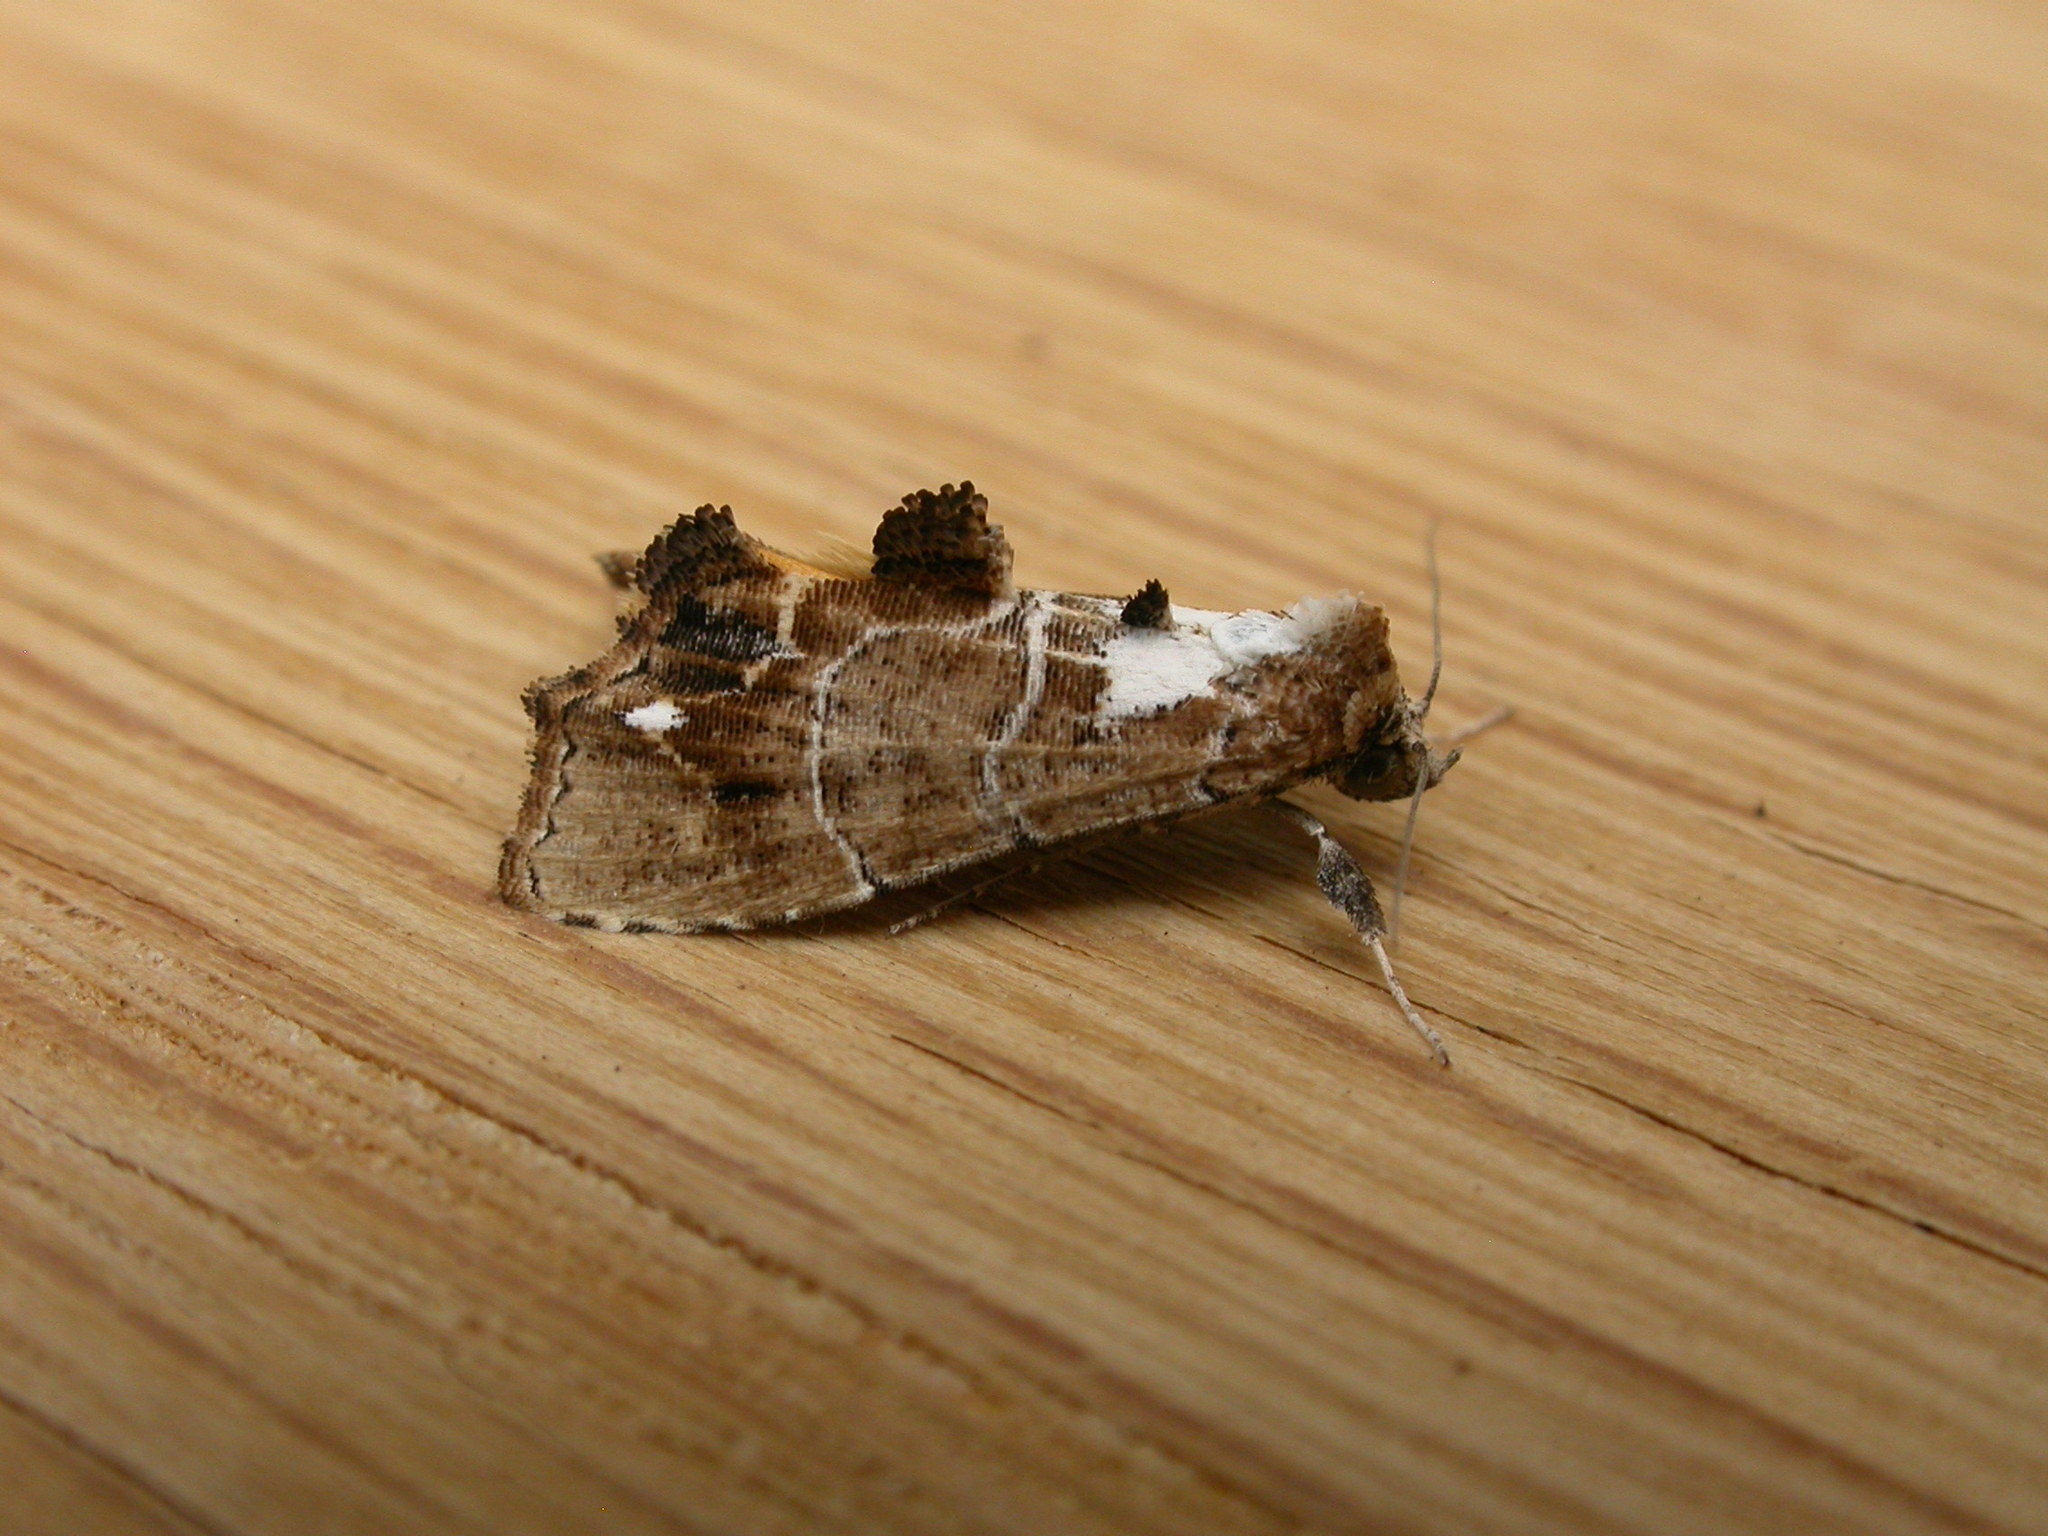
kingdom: Animalia
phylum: Arthropoda
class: Insecta
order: Lepidoptera
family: Erebidae
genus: Arrade
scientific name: Arrade leucocosmalis
